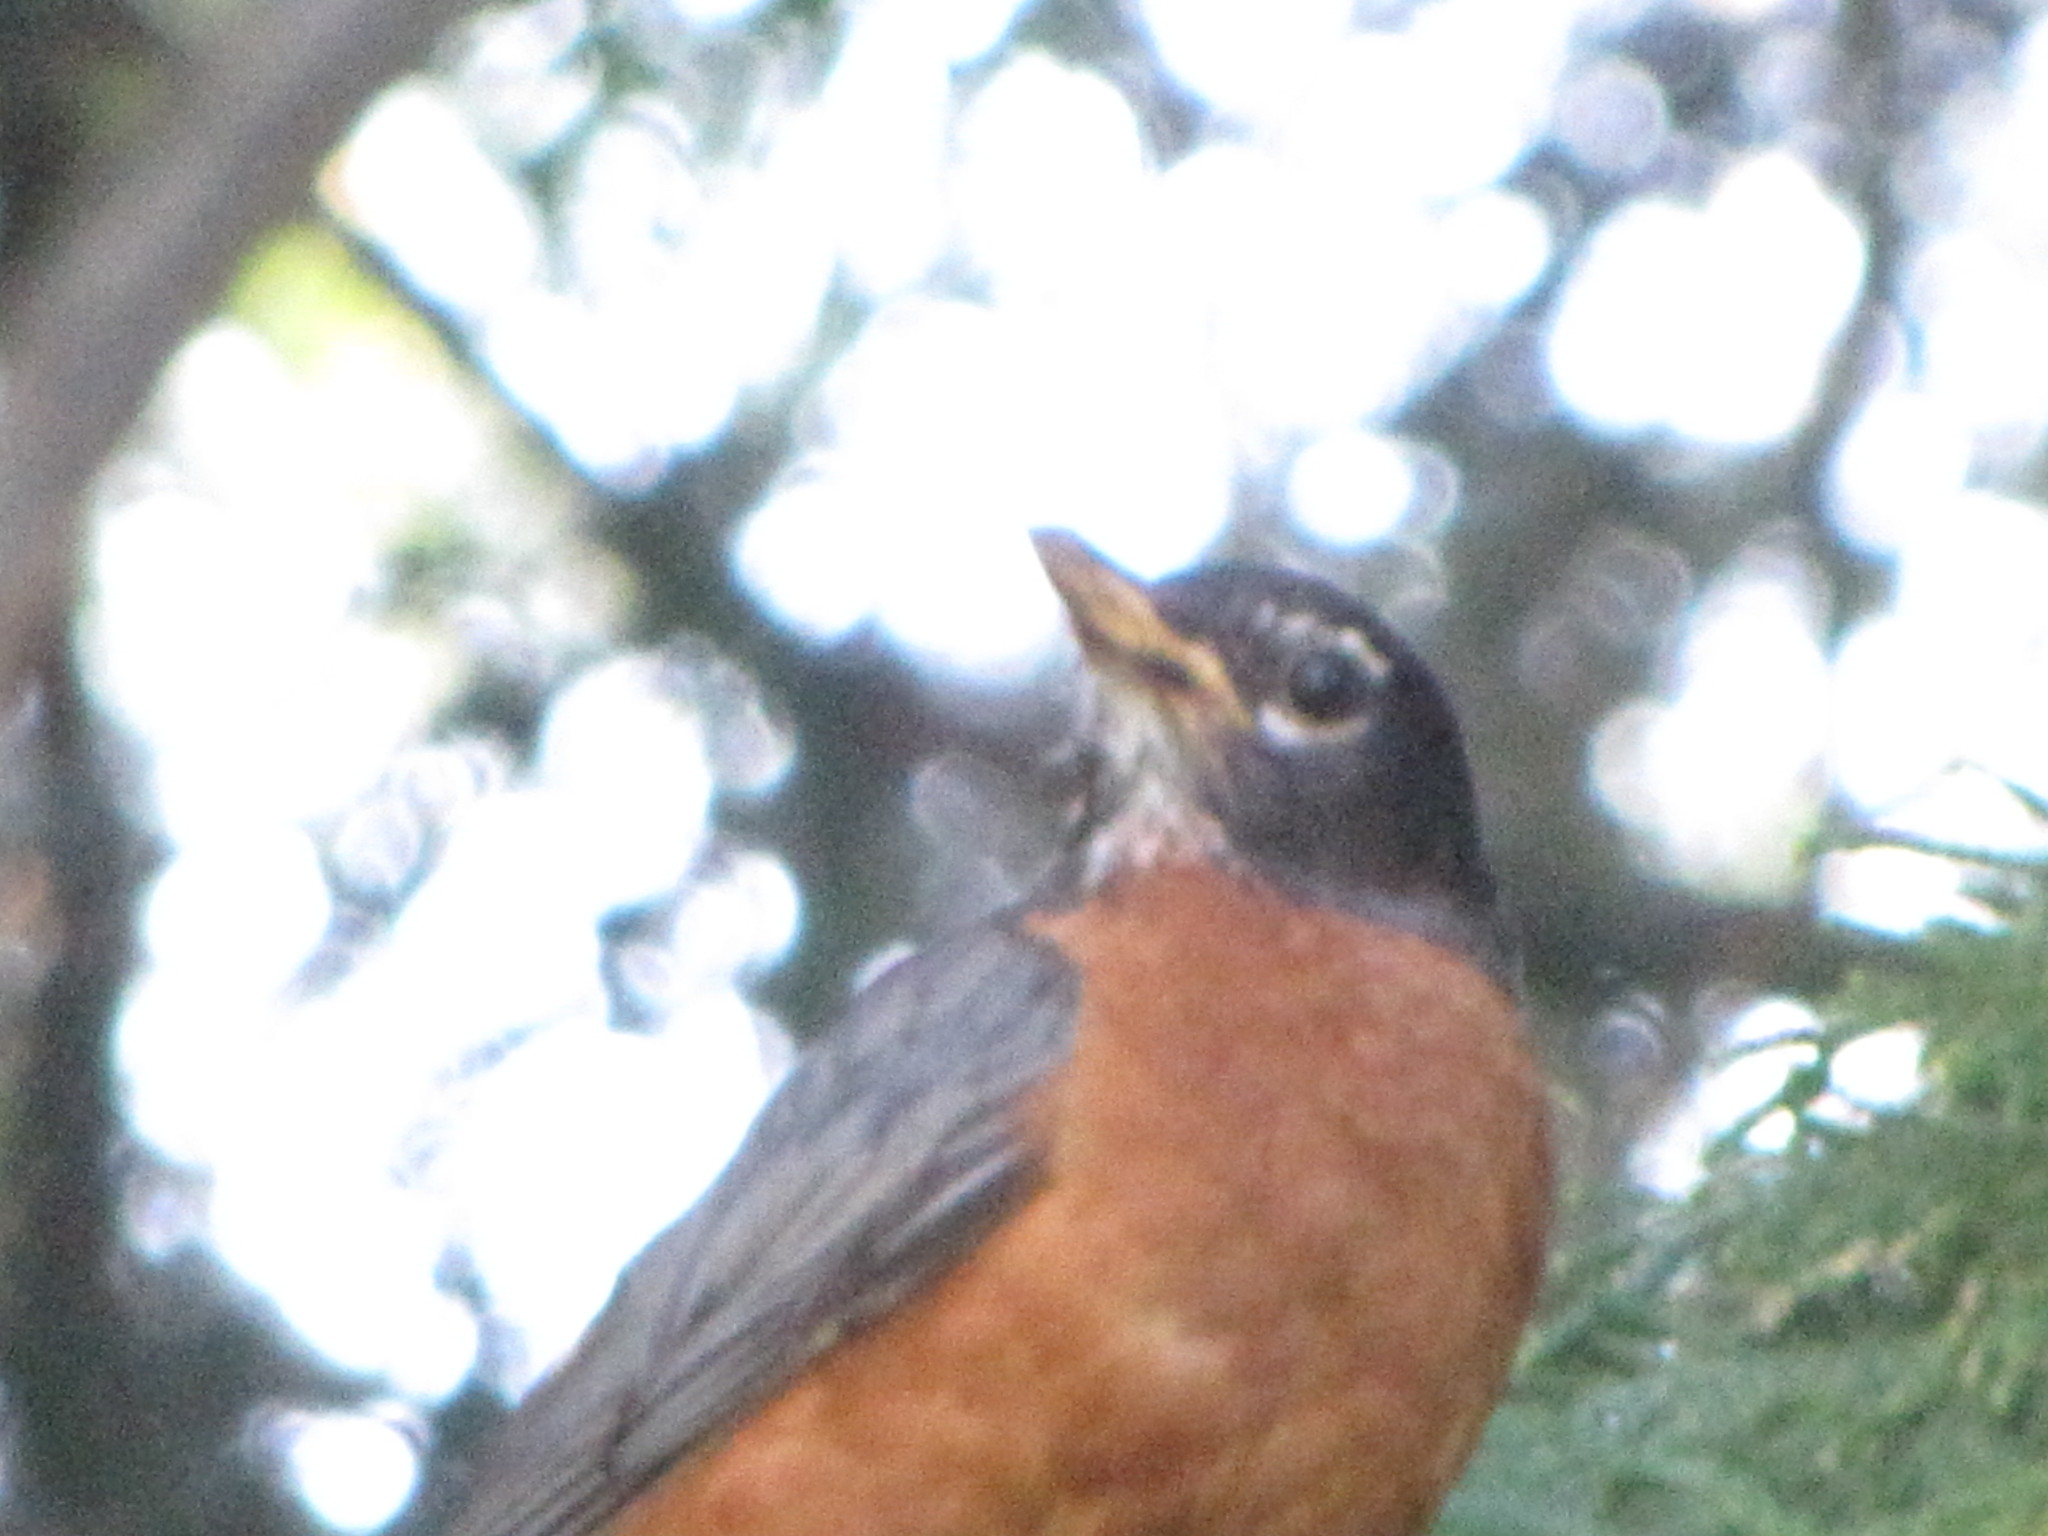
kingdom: Animalia
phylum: Chordata
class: Aves
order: Passeriformes
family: Turdidae
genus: Turdus
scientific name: Turdus migratorius
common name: American robin
